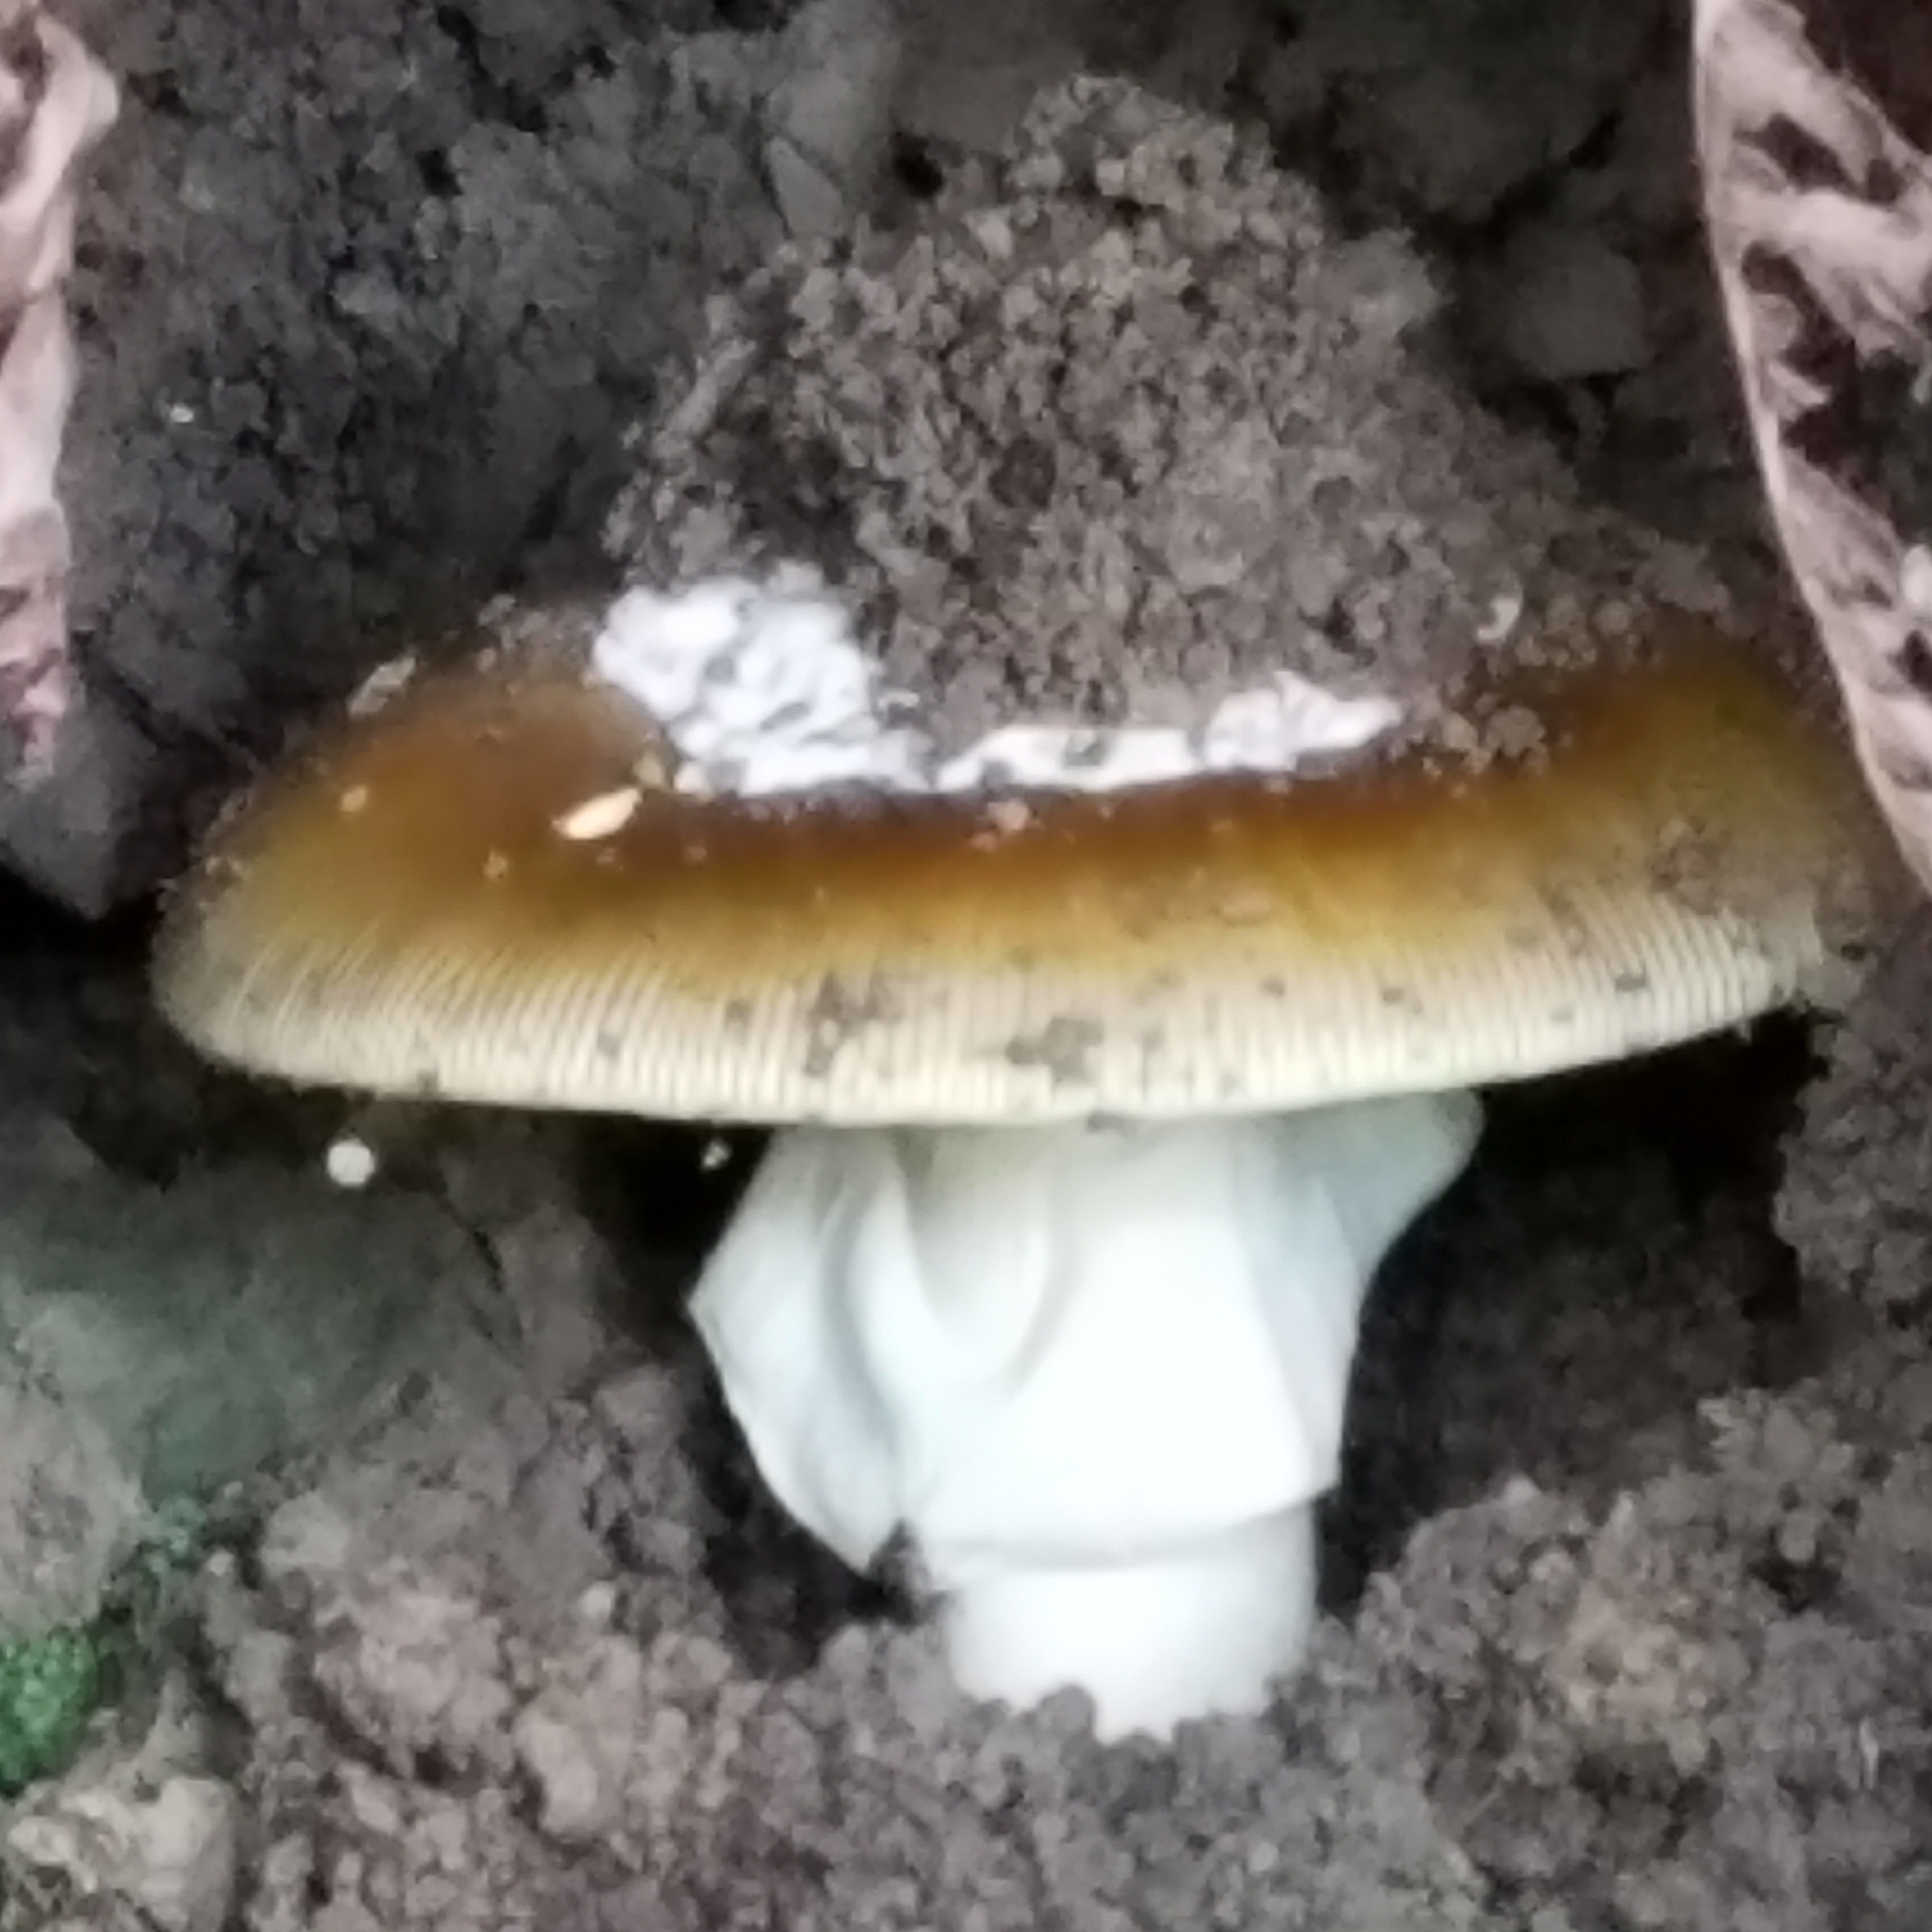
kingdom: Fungi
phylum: Basidiomycota
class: Agaricomycetes
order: Agaricales
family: Amanitaceae
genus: Amanita
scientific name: Amanita calyptroderma
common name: Coccora
